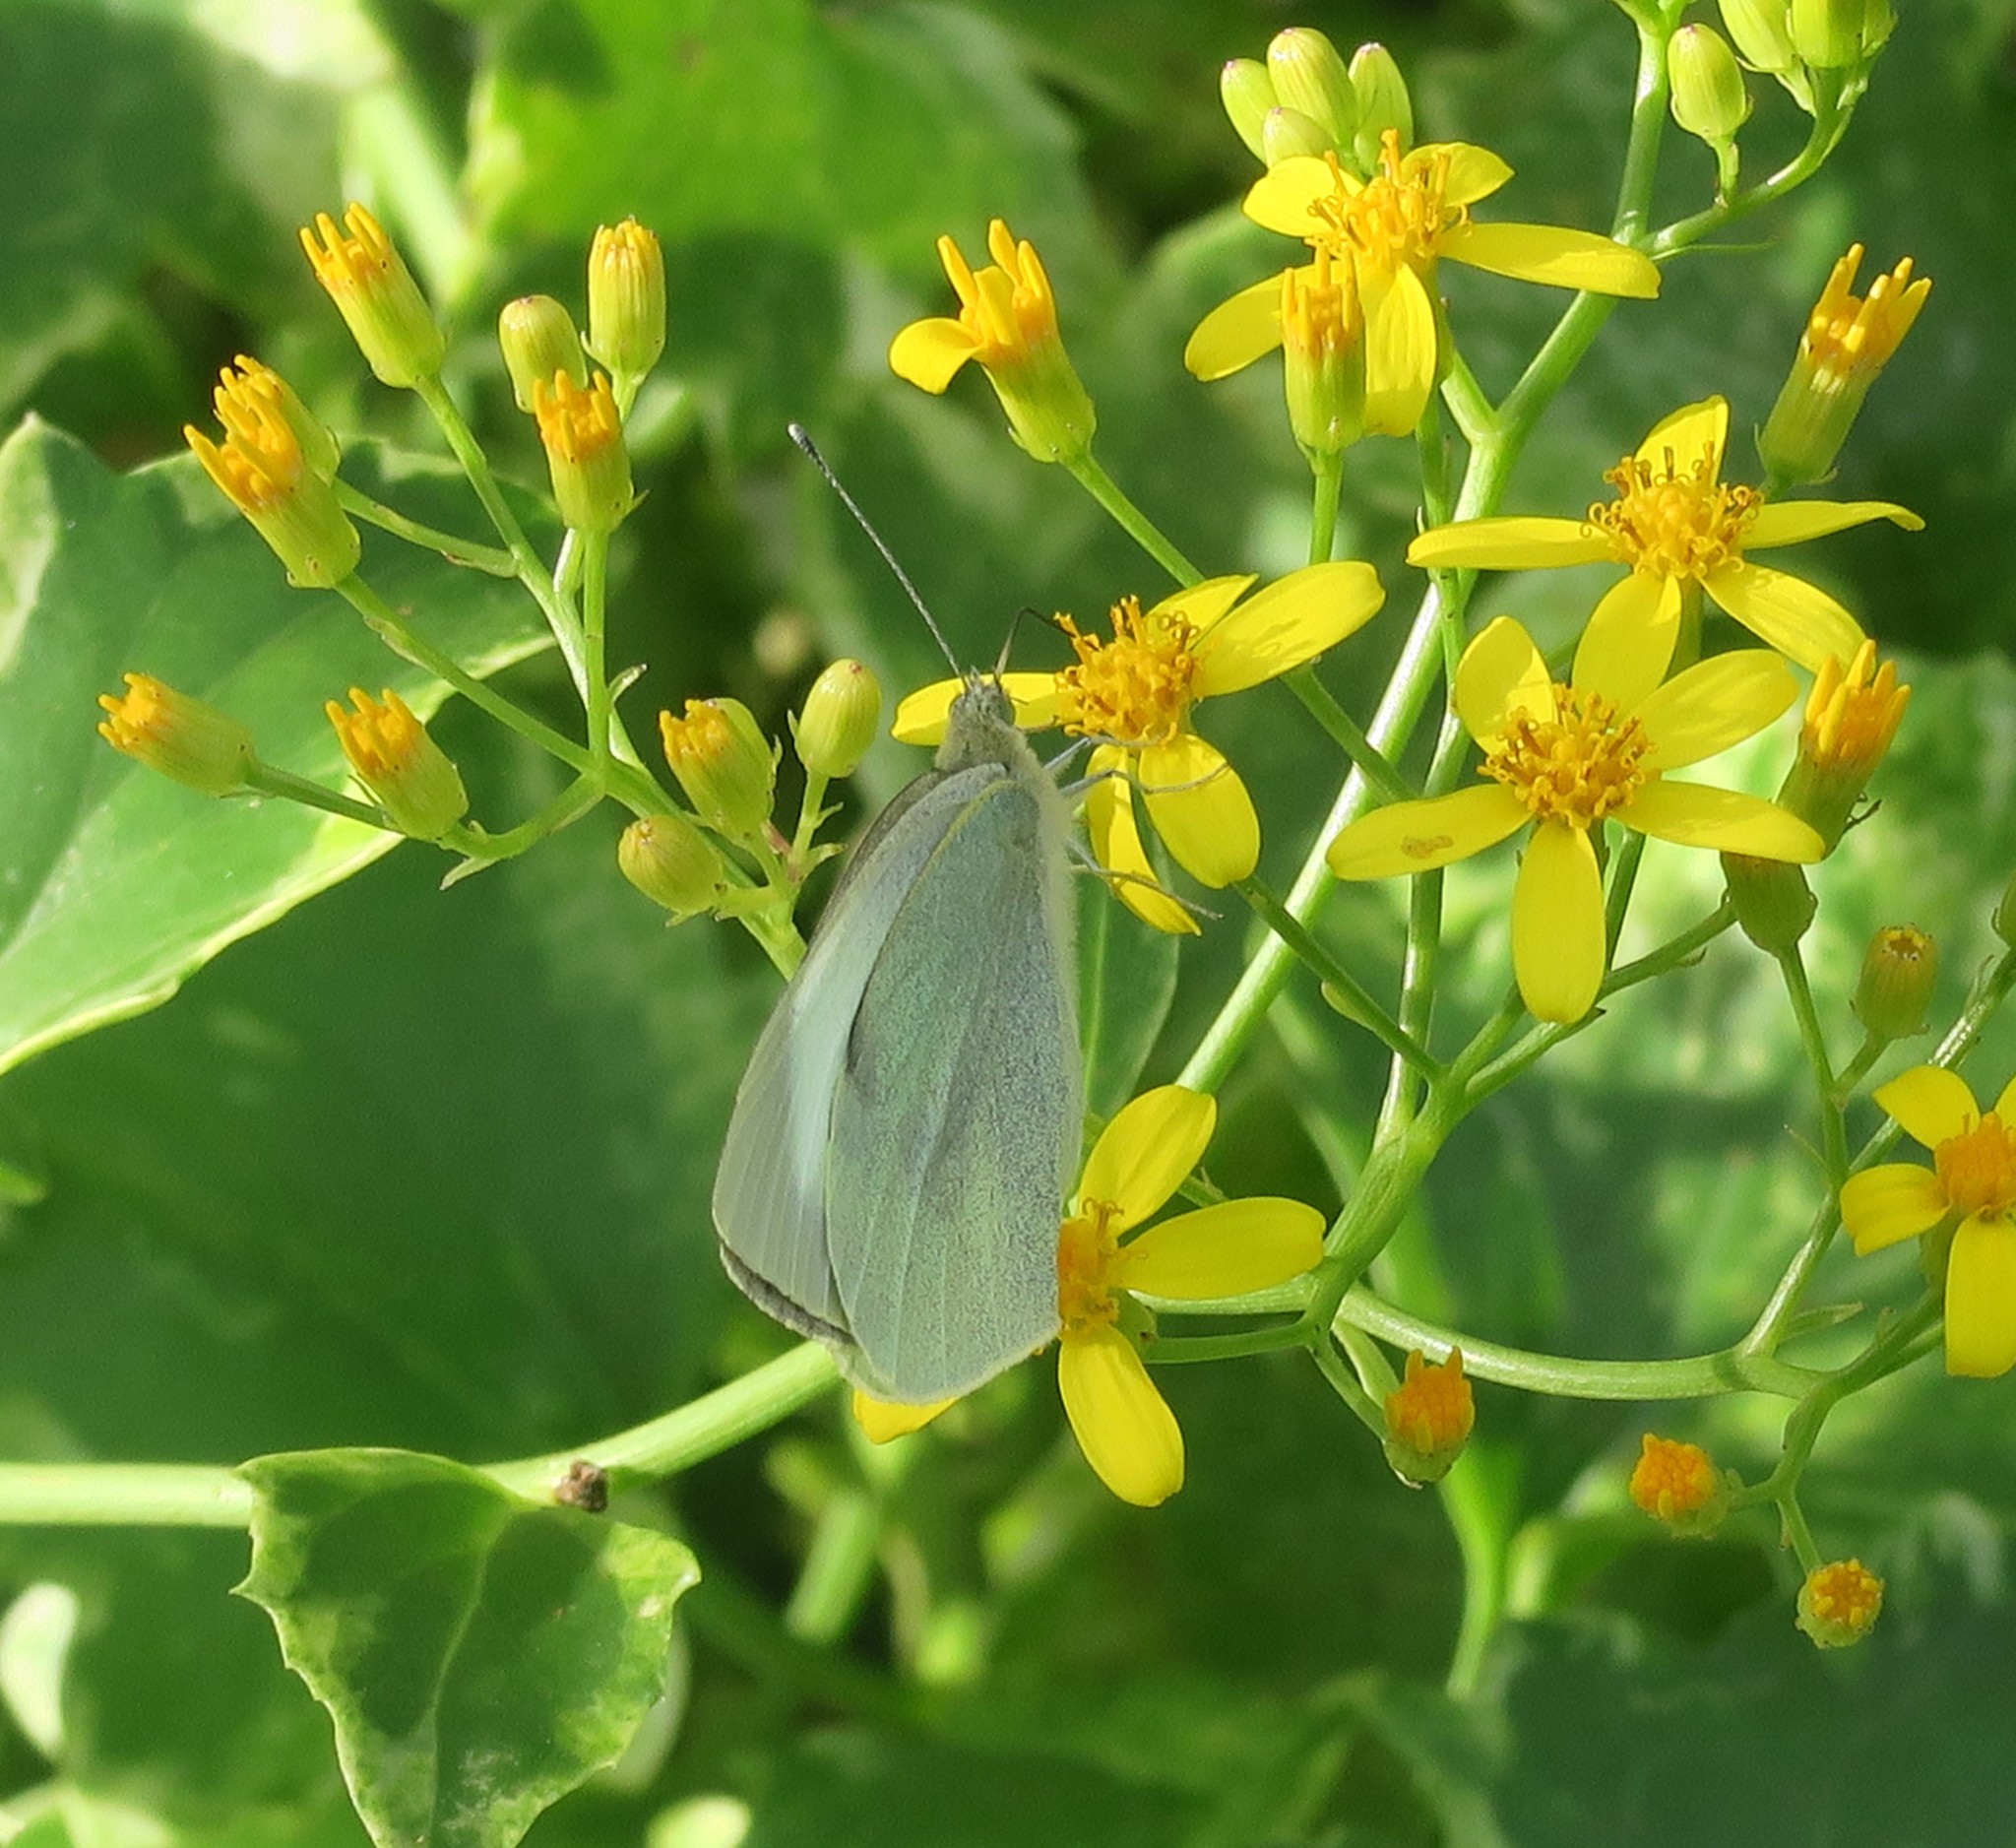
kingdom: Animalia
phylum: Arthropoda
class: Insecta
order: Lepidoptera
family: Pieridae
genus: Pieris
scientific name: Pieris brassicae
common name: Large white
